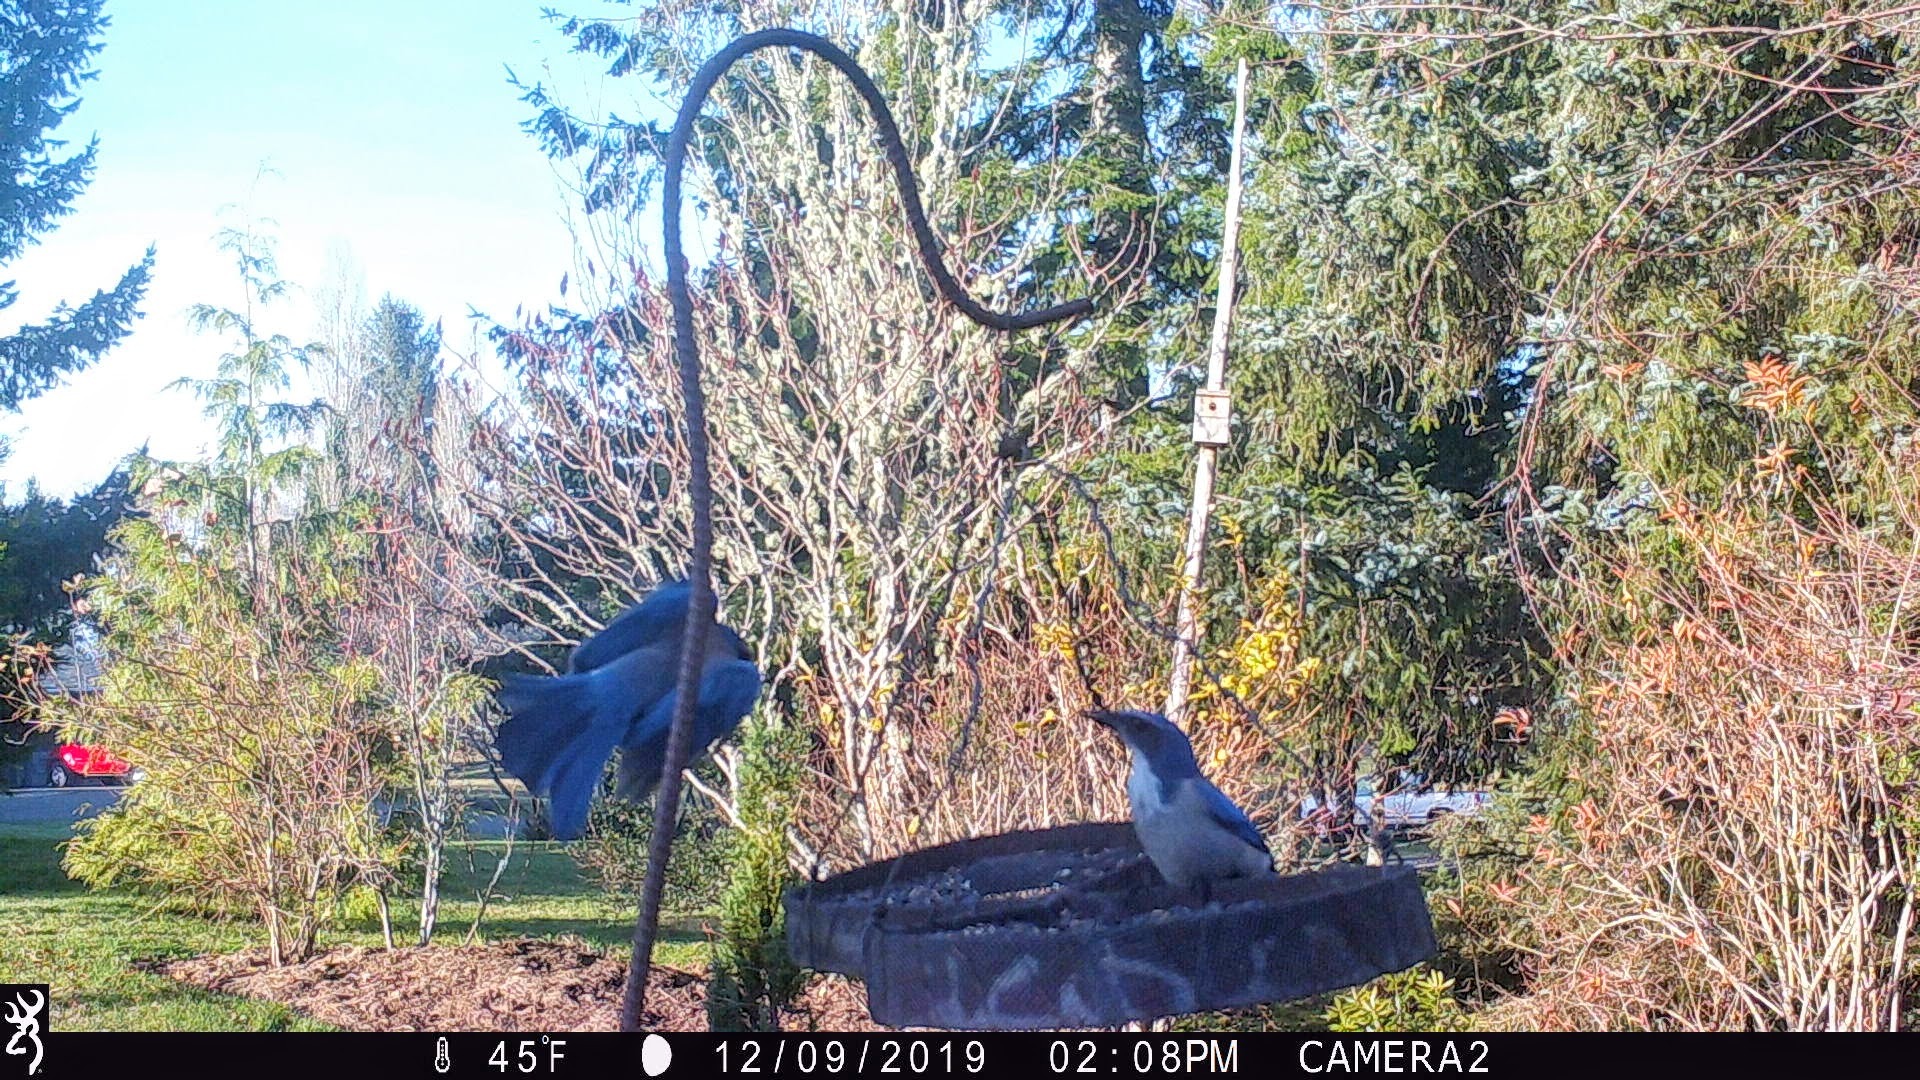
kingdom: Animalia
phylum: Chordata
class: Aves
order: Passeriformes
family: Corvidae
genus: Aphelocoma
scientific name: Aphelocoma californica
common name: California scrub-jay
